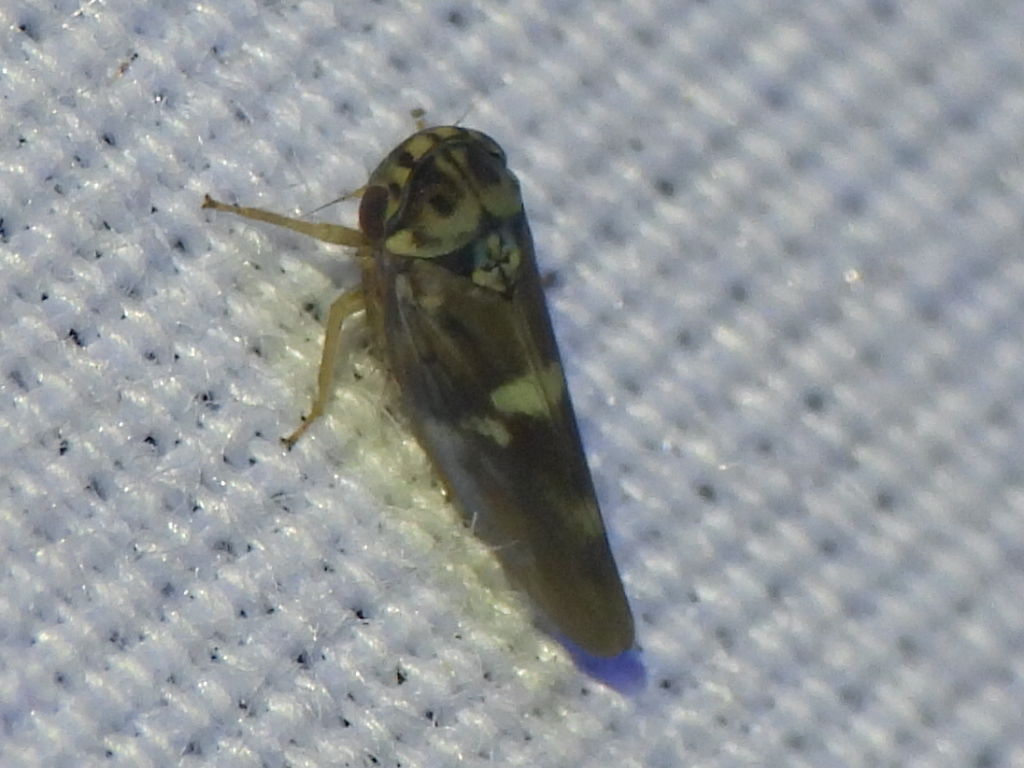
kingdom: Animalia
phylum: Arthropoda
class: Insecta
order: Hemiptera
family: Cicadellidae
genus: Agalliopsis
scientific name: Agalliopsis cervina
